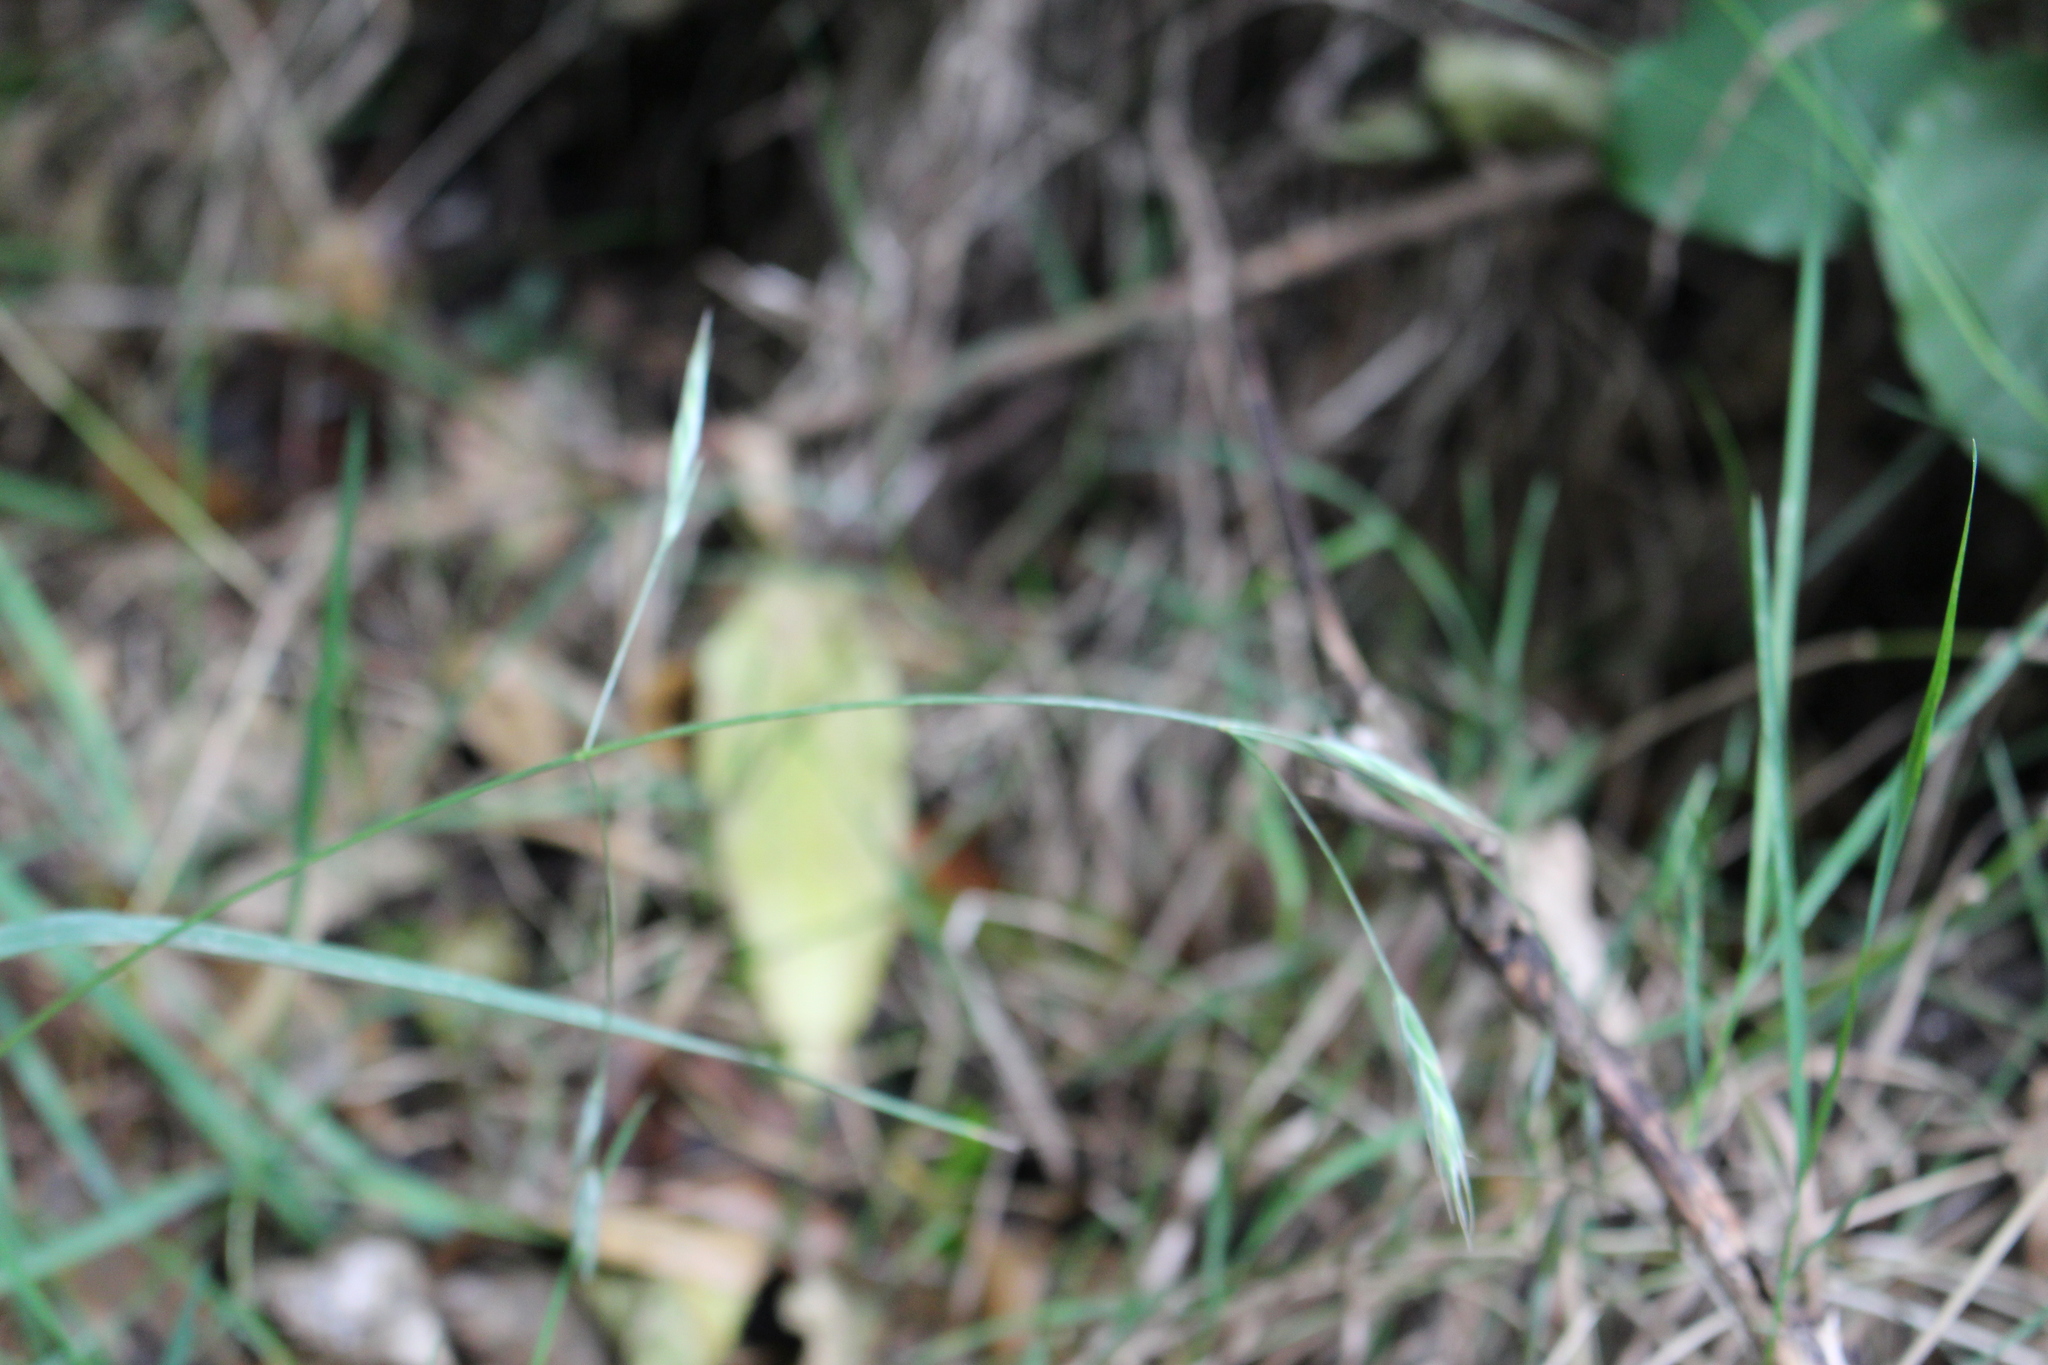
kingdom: Plantae
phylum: Tracheophyta
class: Liliopsida
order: Poales
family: Poaceae
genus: Bromus
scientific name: Bromus hordeaceus
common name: Soft brome
